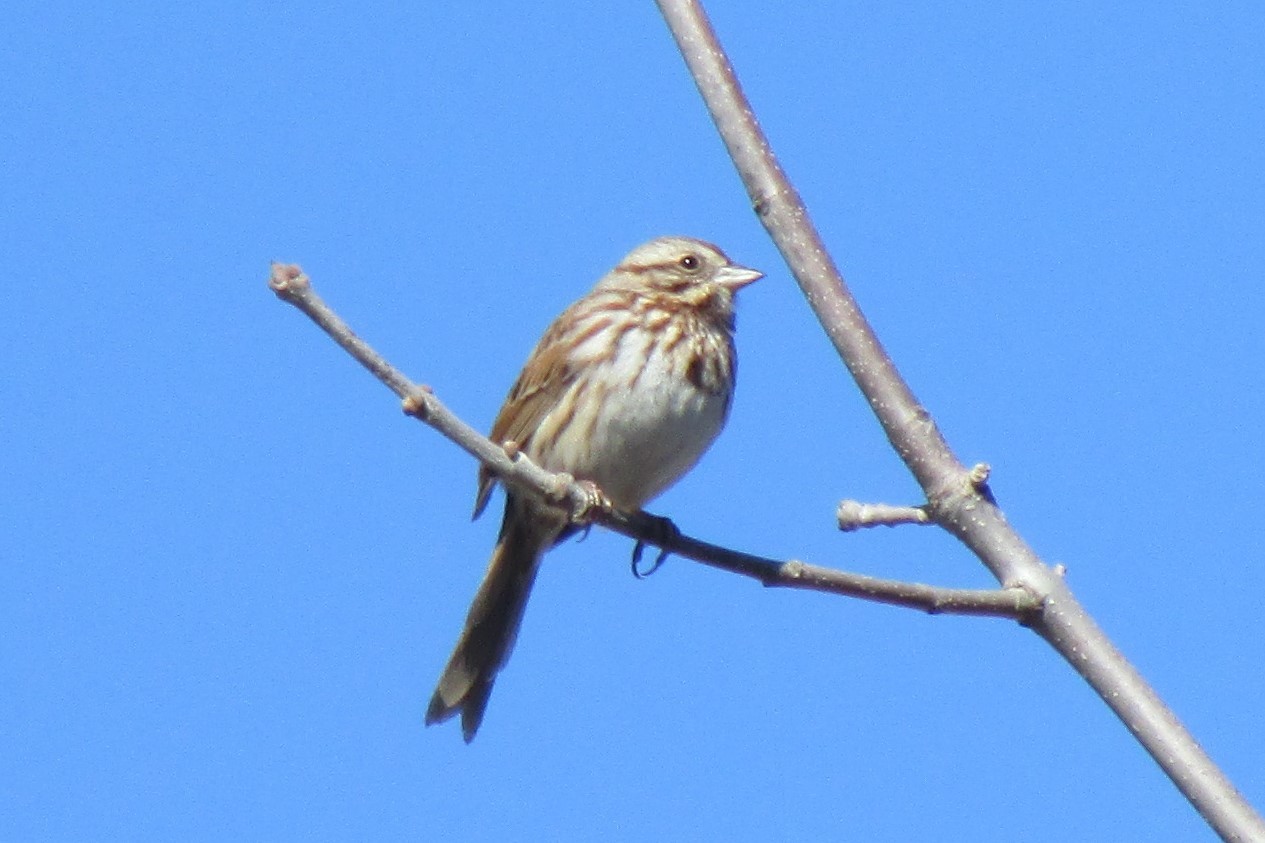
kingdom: Animalia
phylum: Chordata
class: Aves
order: Passeriformes
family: Passerellidae
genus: Melospiza
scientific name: Melospiza melodia
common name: Song sparrow
